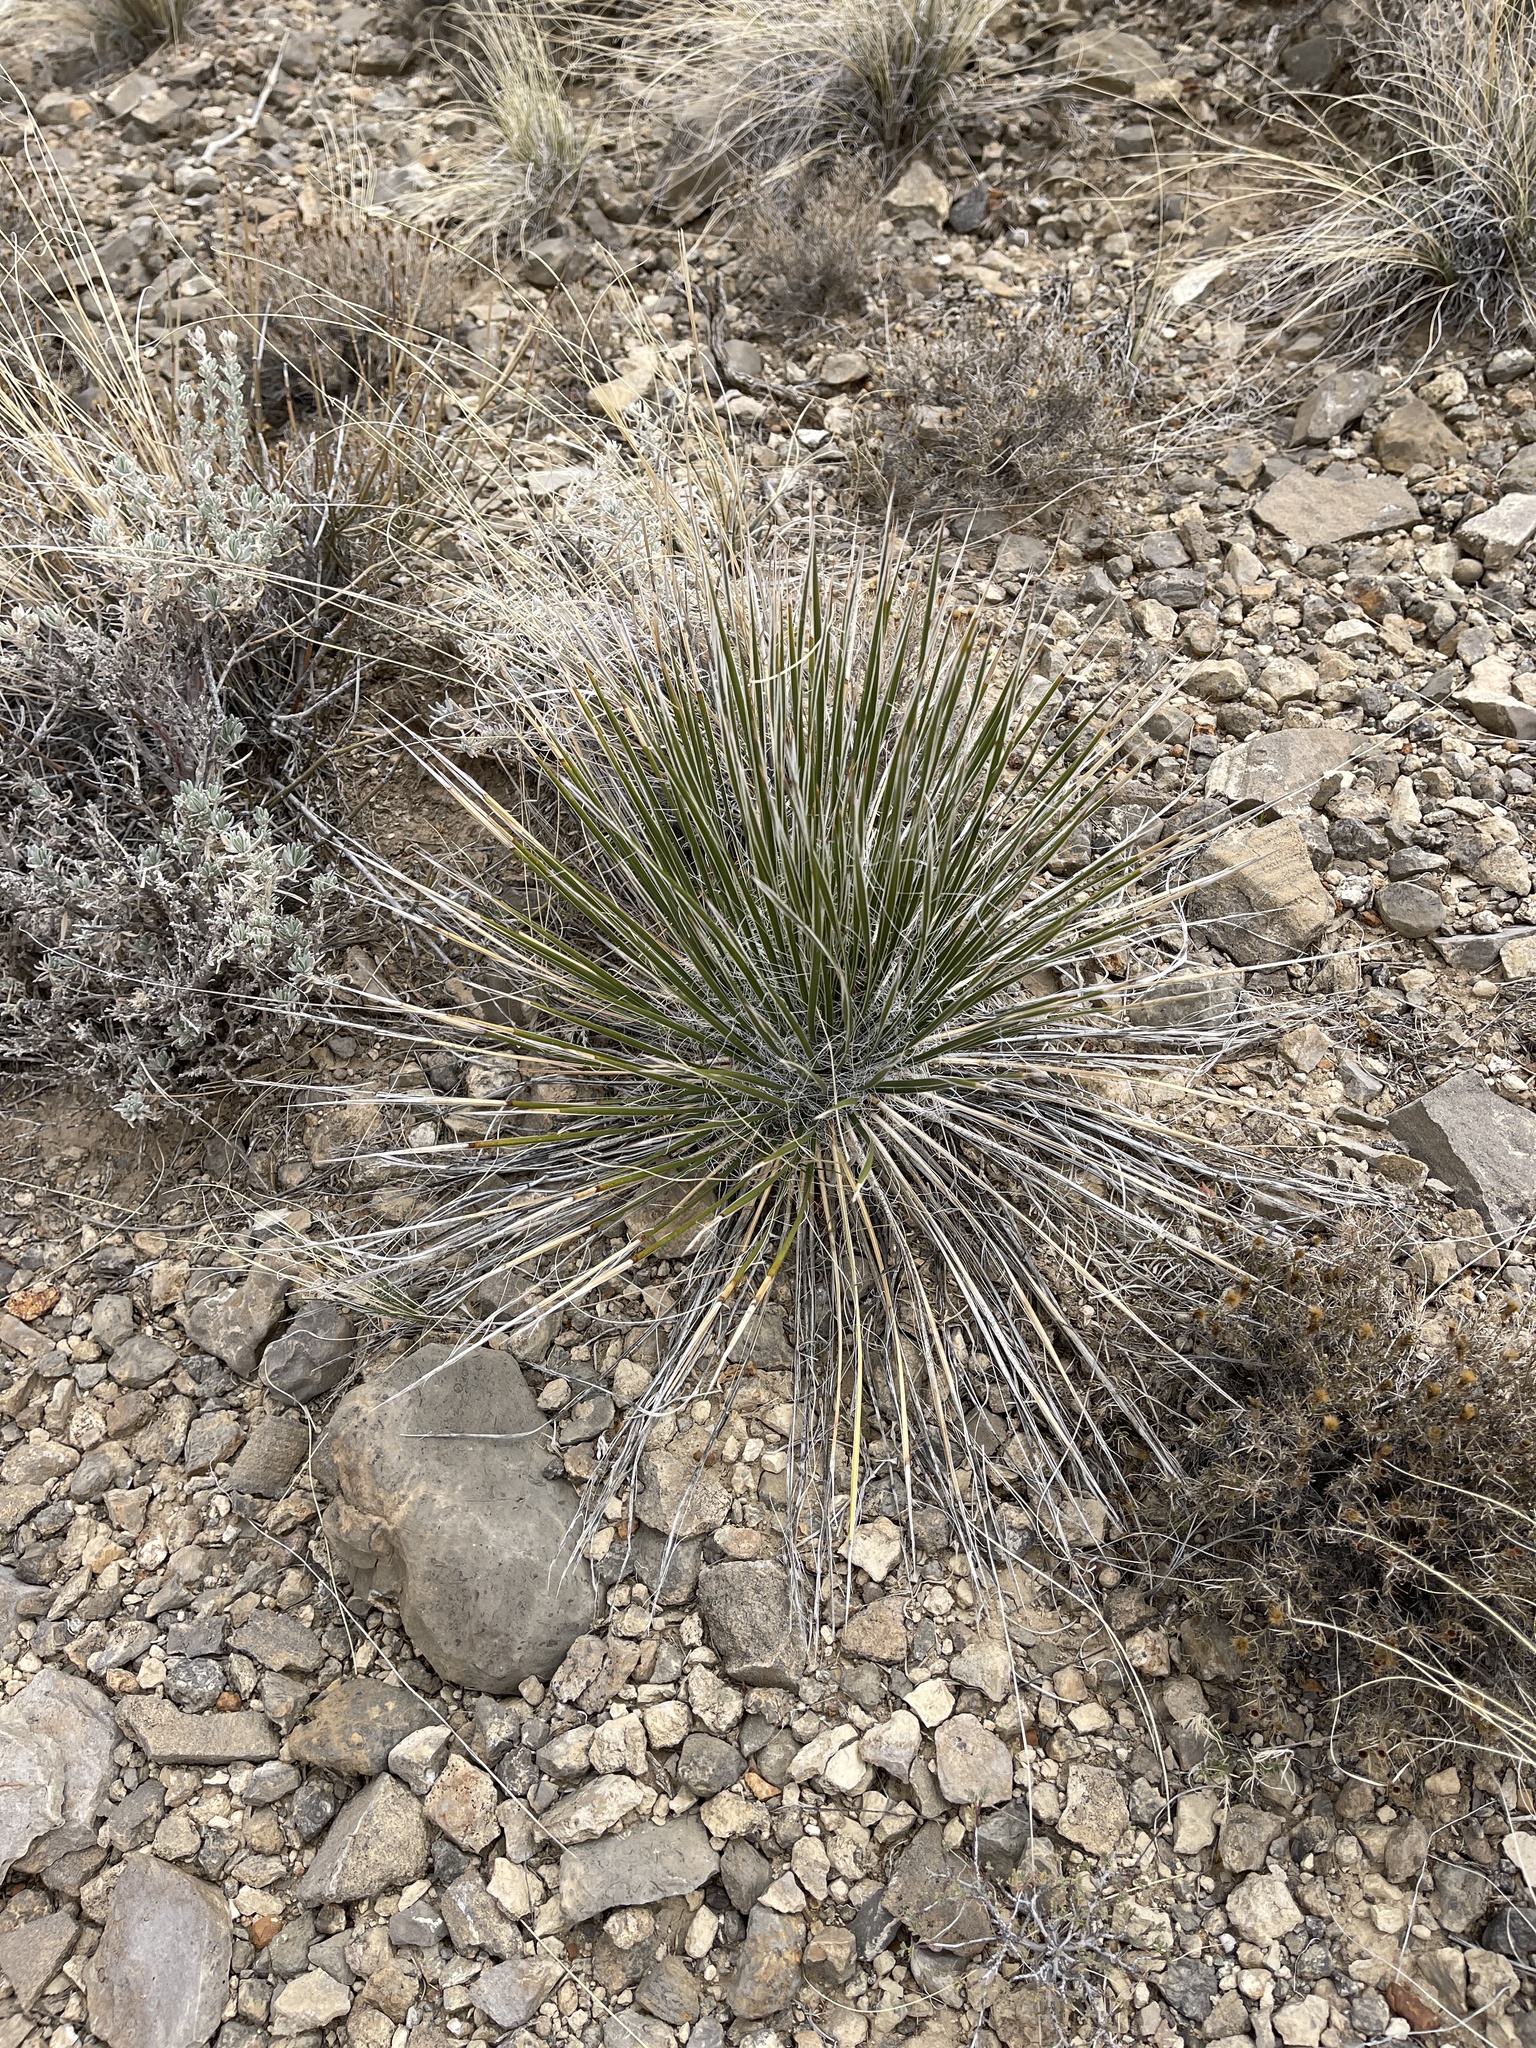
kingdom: Plantae
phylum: Tracheophyta
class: Liliopsida
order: Asparagales
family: Asparagaceae
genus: Yucca
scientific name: Yucca elata
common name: Palmella
